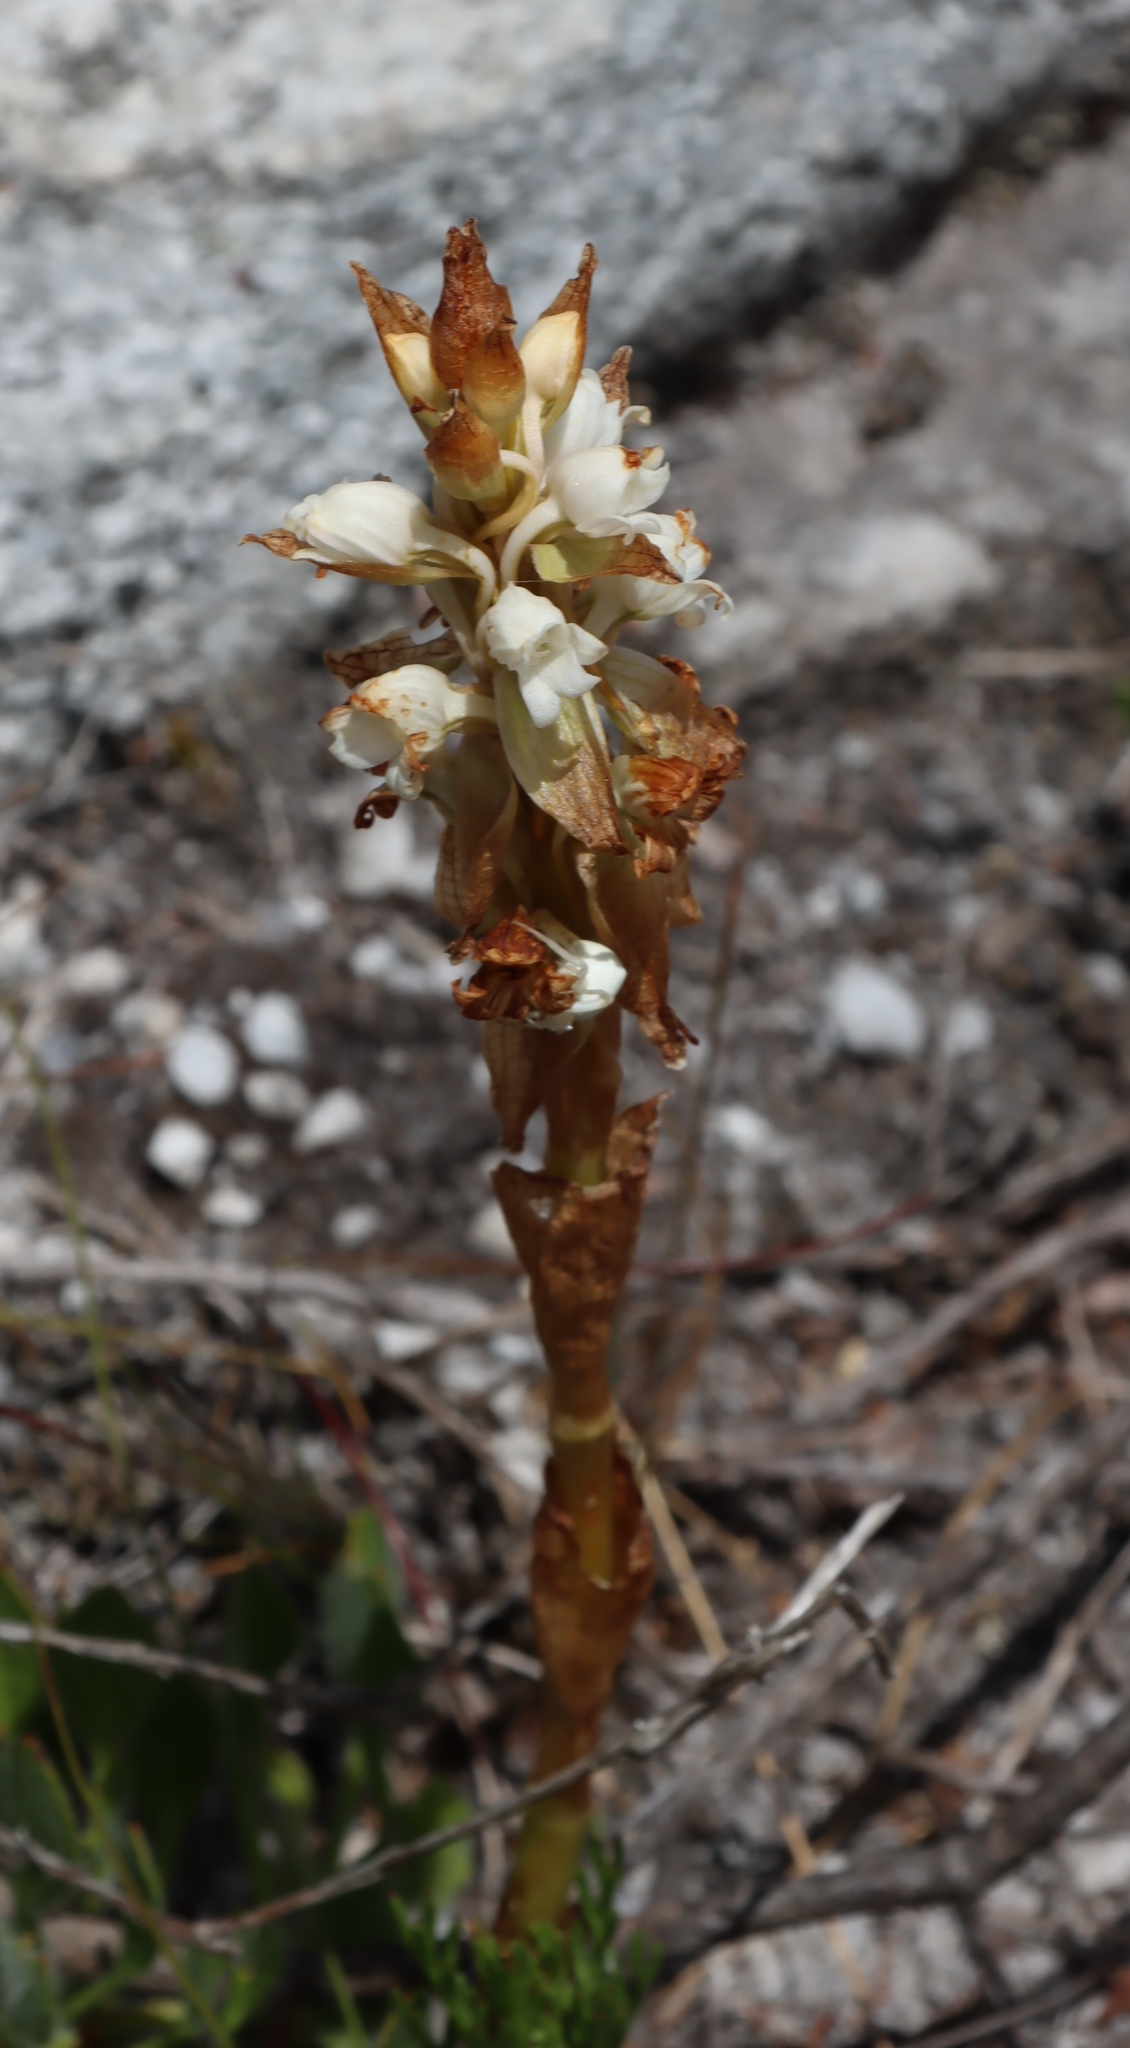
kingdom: Plantae
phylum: Tracheophyta
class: Liliopsida
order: Asparagales
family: Orchidaceae
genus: Satyrium
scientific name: Satyrium acuminatum
